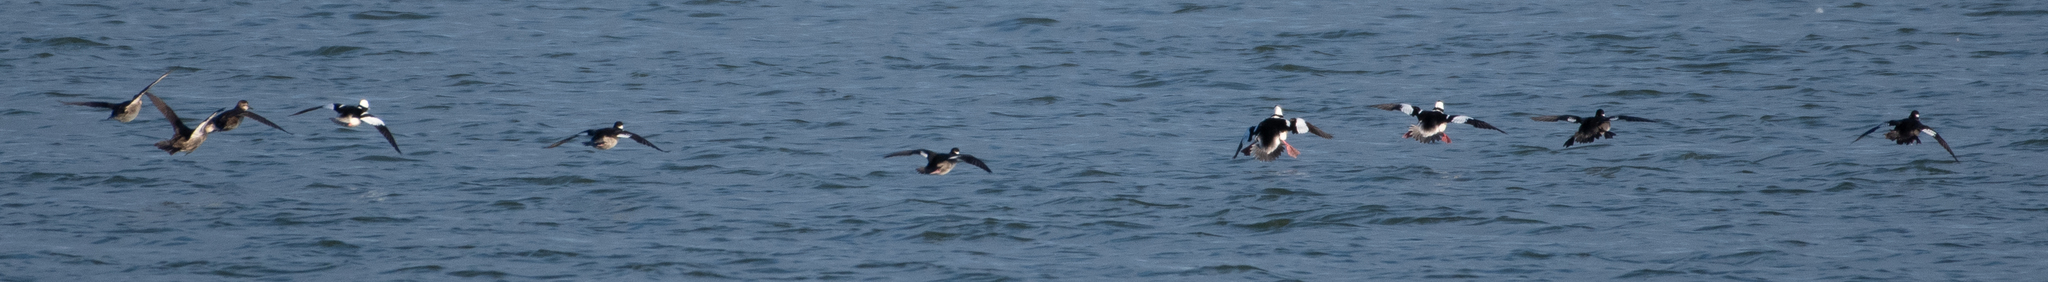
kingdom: Animalia
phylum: Chordata
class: Aves
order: Anseriformes
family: Anatidae
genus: Bucephala
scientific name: Bucephala albeola
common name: Bufflehead
